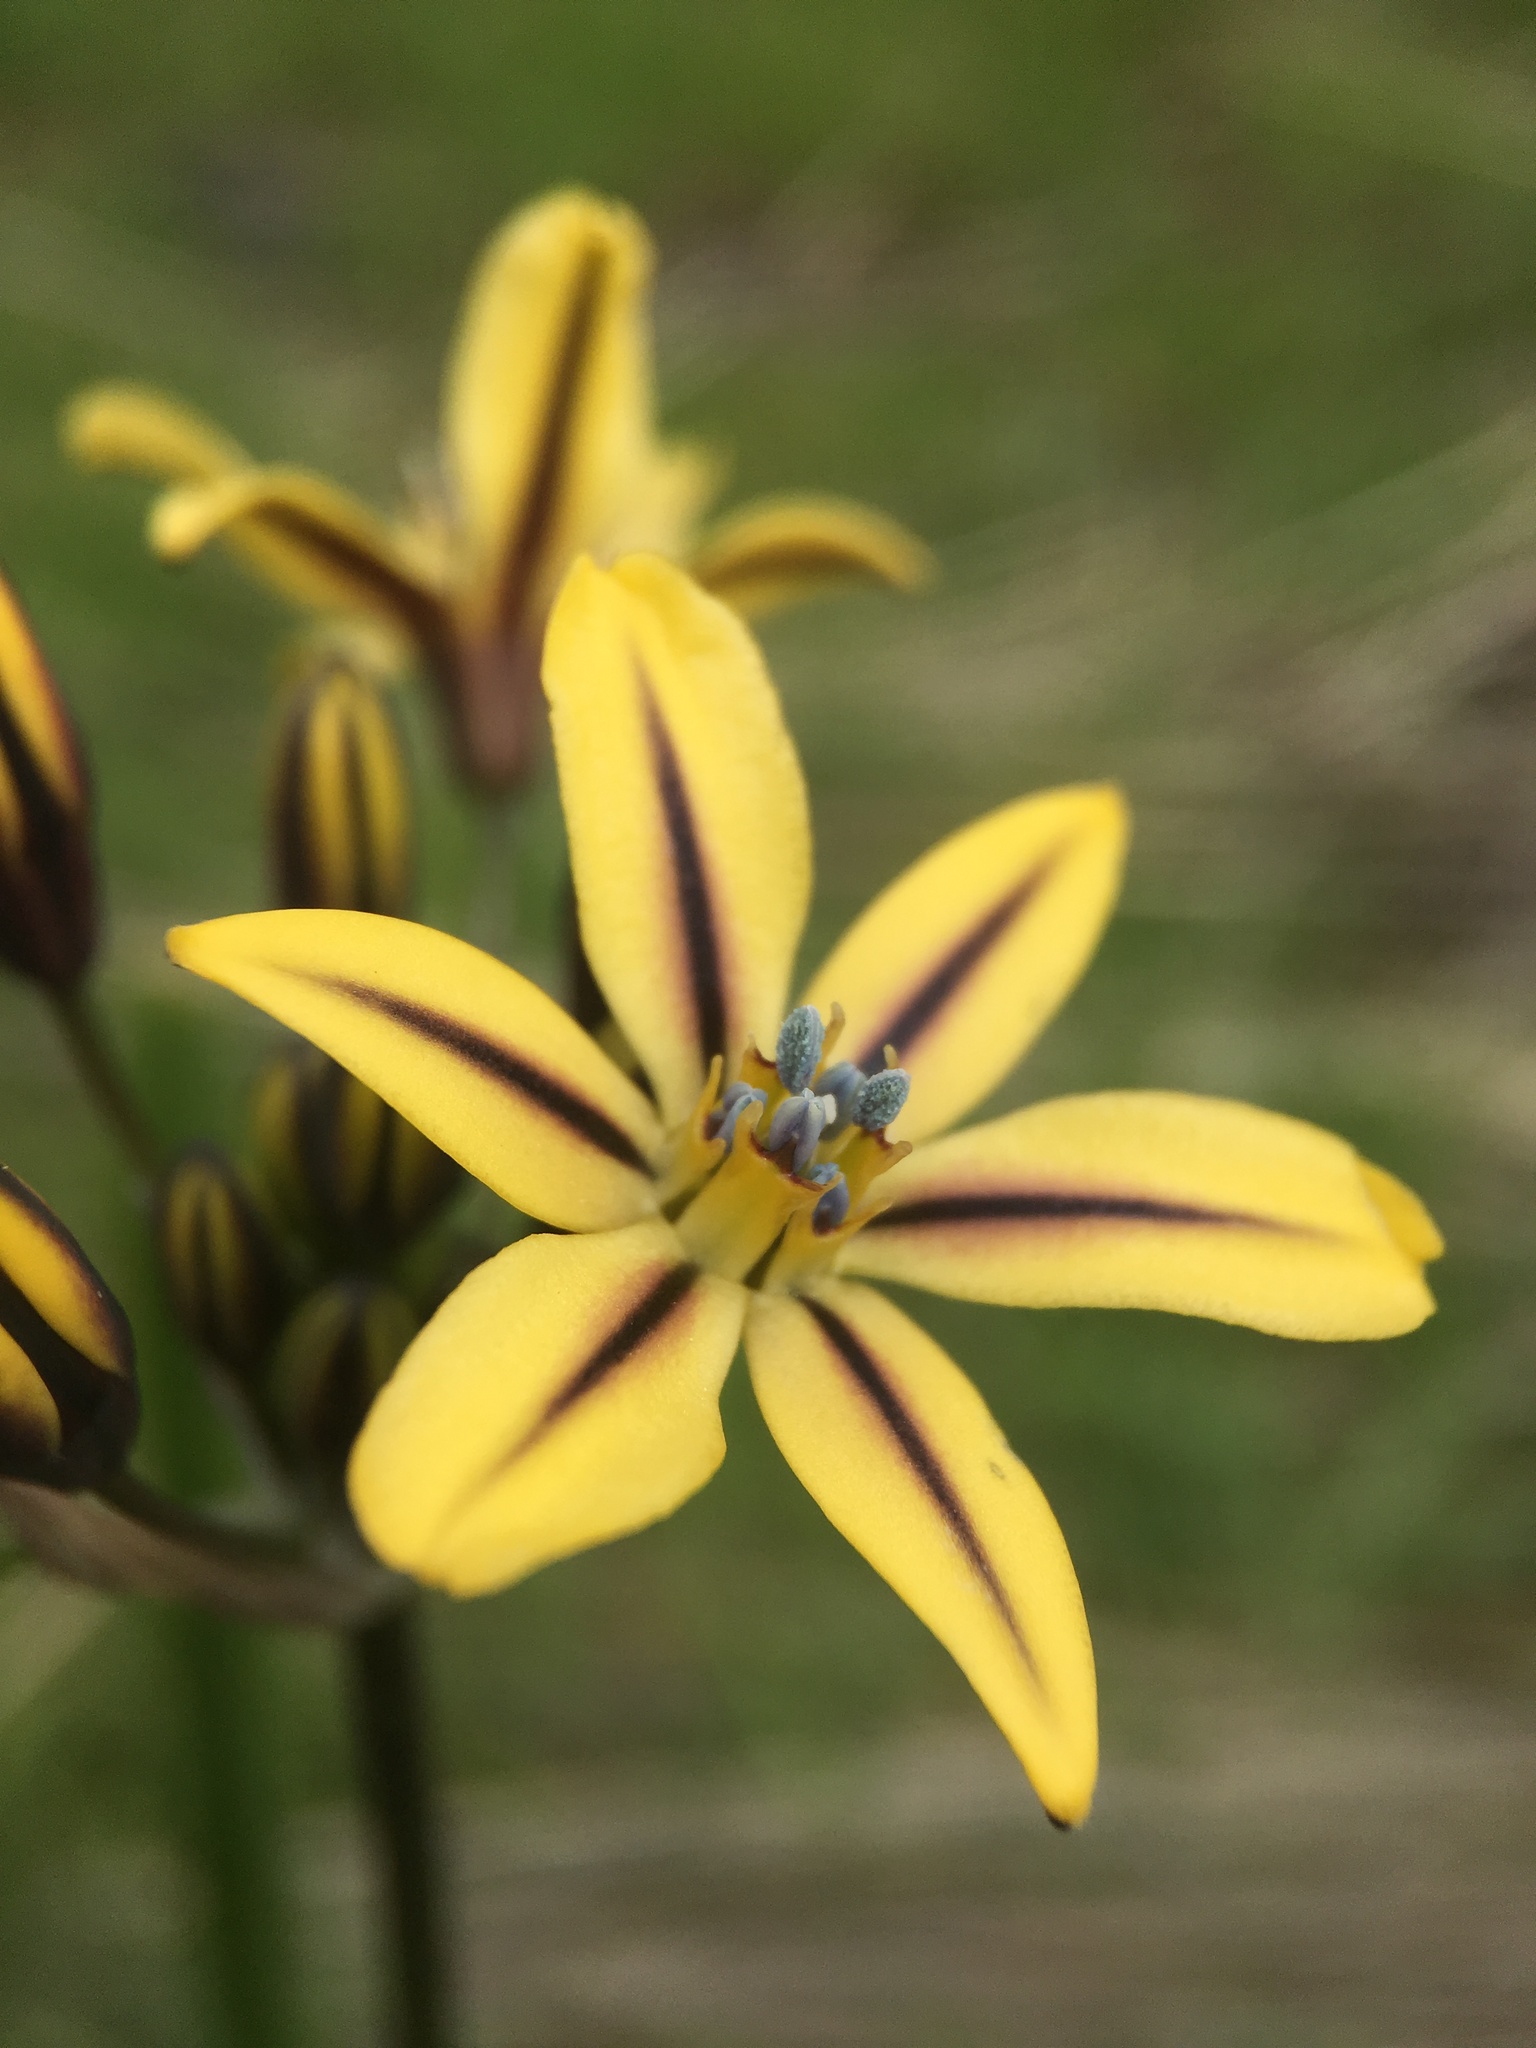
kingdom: Plantae
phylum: Tracheophyta
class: Liliopsida
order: Asparagales
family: Asparagaceae
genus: Triteleia
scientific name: Triteleia ixioides
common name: Yellow-brodiaea
